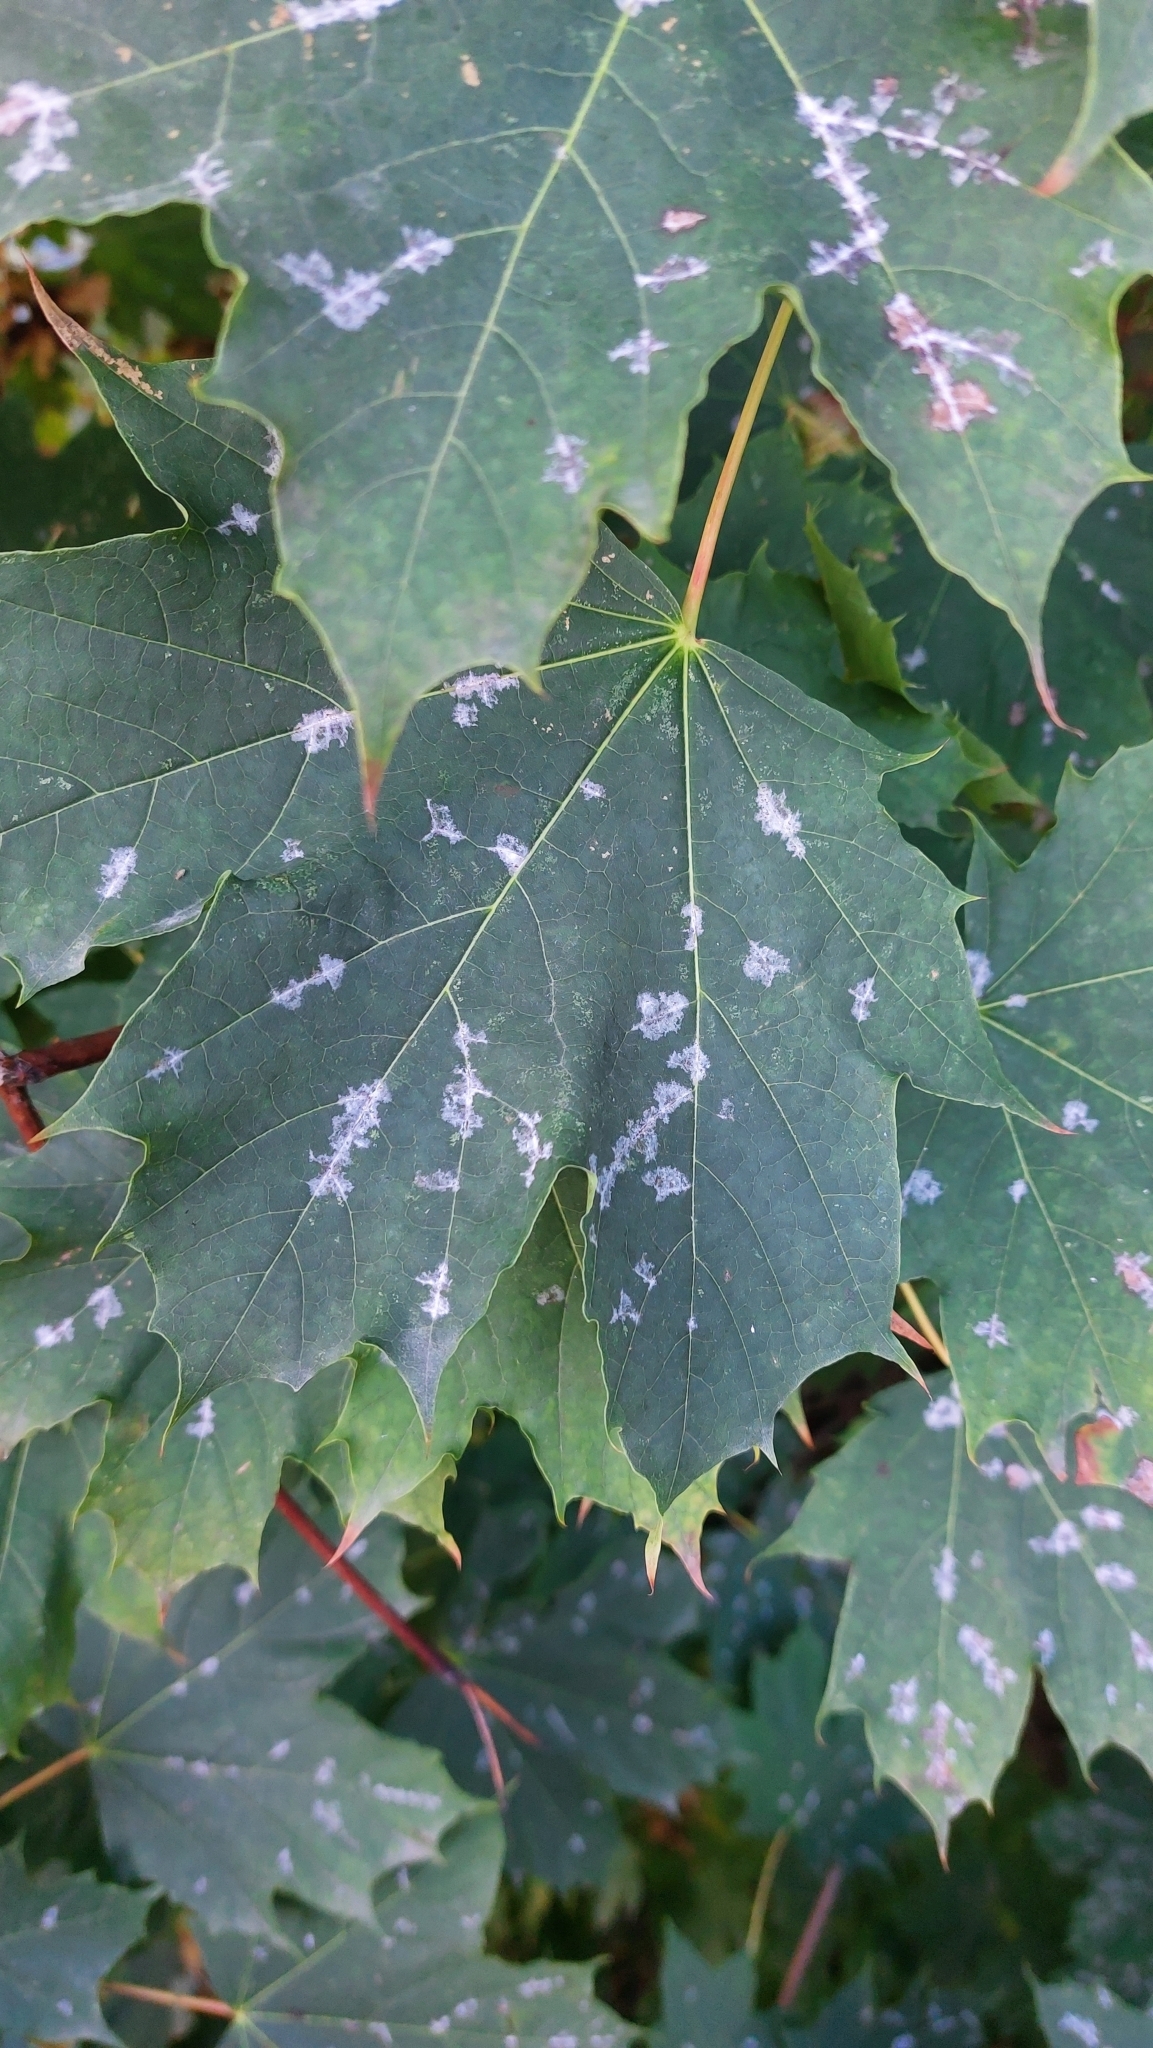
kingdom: Fungi
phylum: Ascomycota
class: Leotiomycetes
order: Helotiales
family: Erysiphaceae
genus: Sawadaea
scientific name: Sawadaea tulasnei
